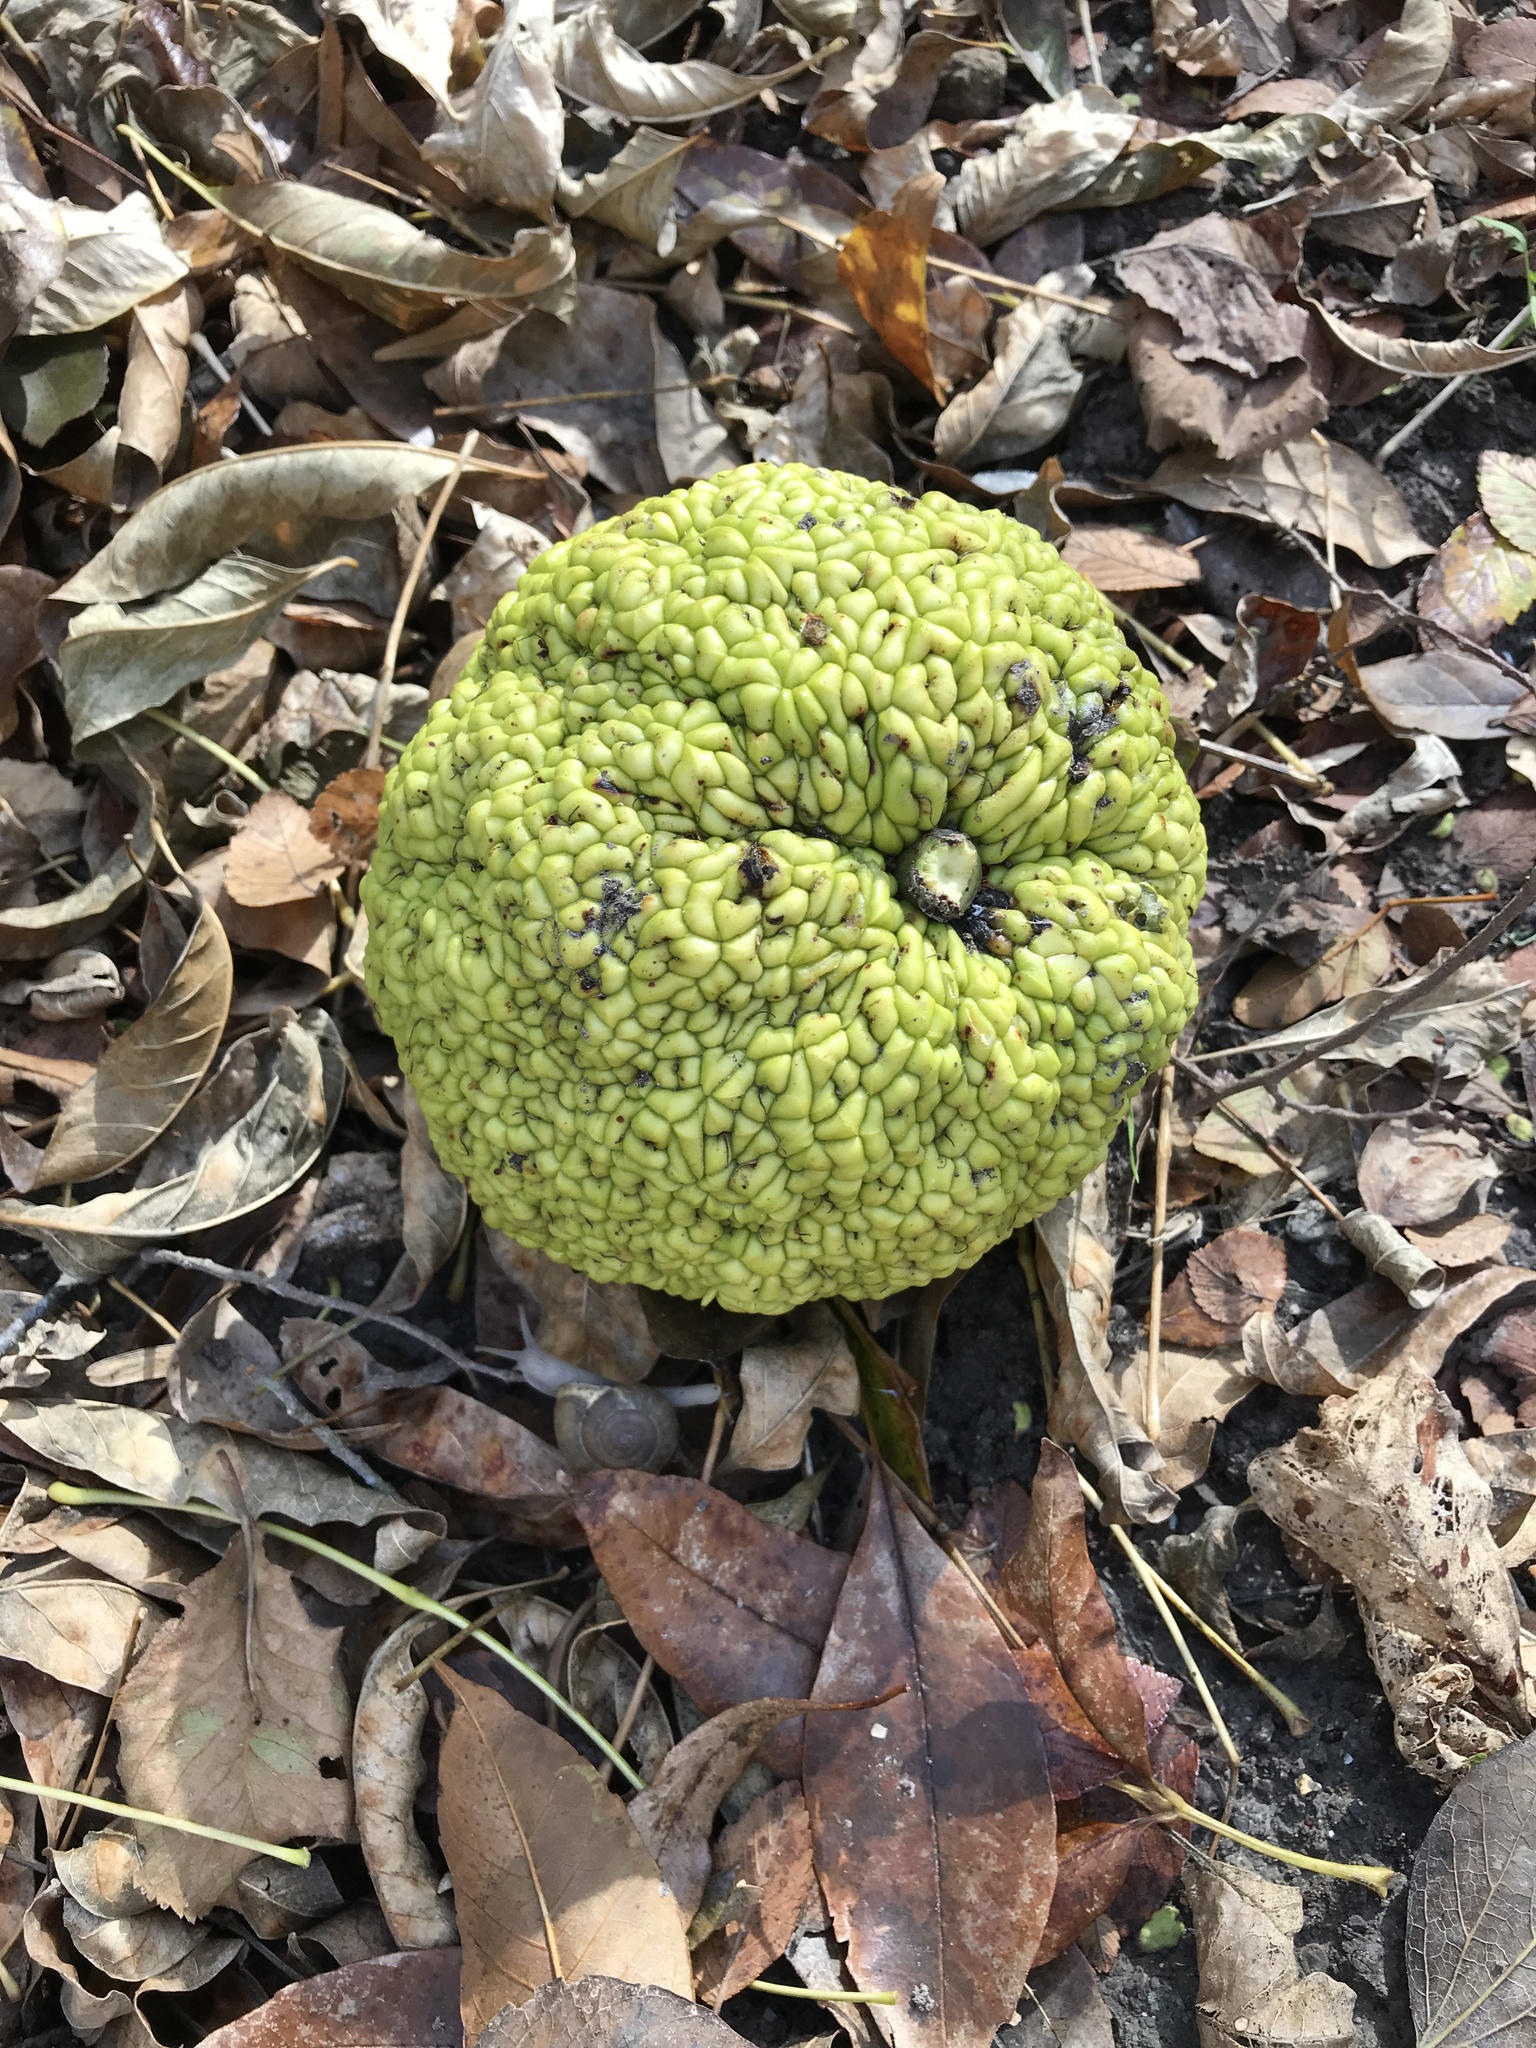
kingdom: Plantae
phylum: Tracheophyta
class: Magnoliopsida
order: Rosales
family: Moraceae
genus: Maclura
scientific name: Maclura pomifera
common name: Osage-orange
